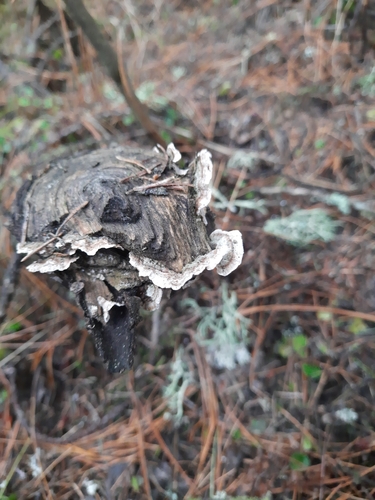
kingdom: Fungi
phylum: Basidiomycota
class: Agaricomycetes
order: Russulales
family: Stereaceae
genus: Stereum
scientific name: Stereum
